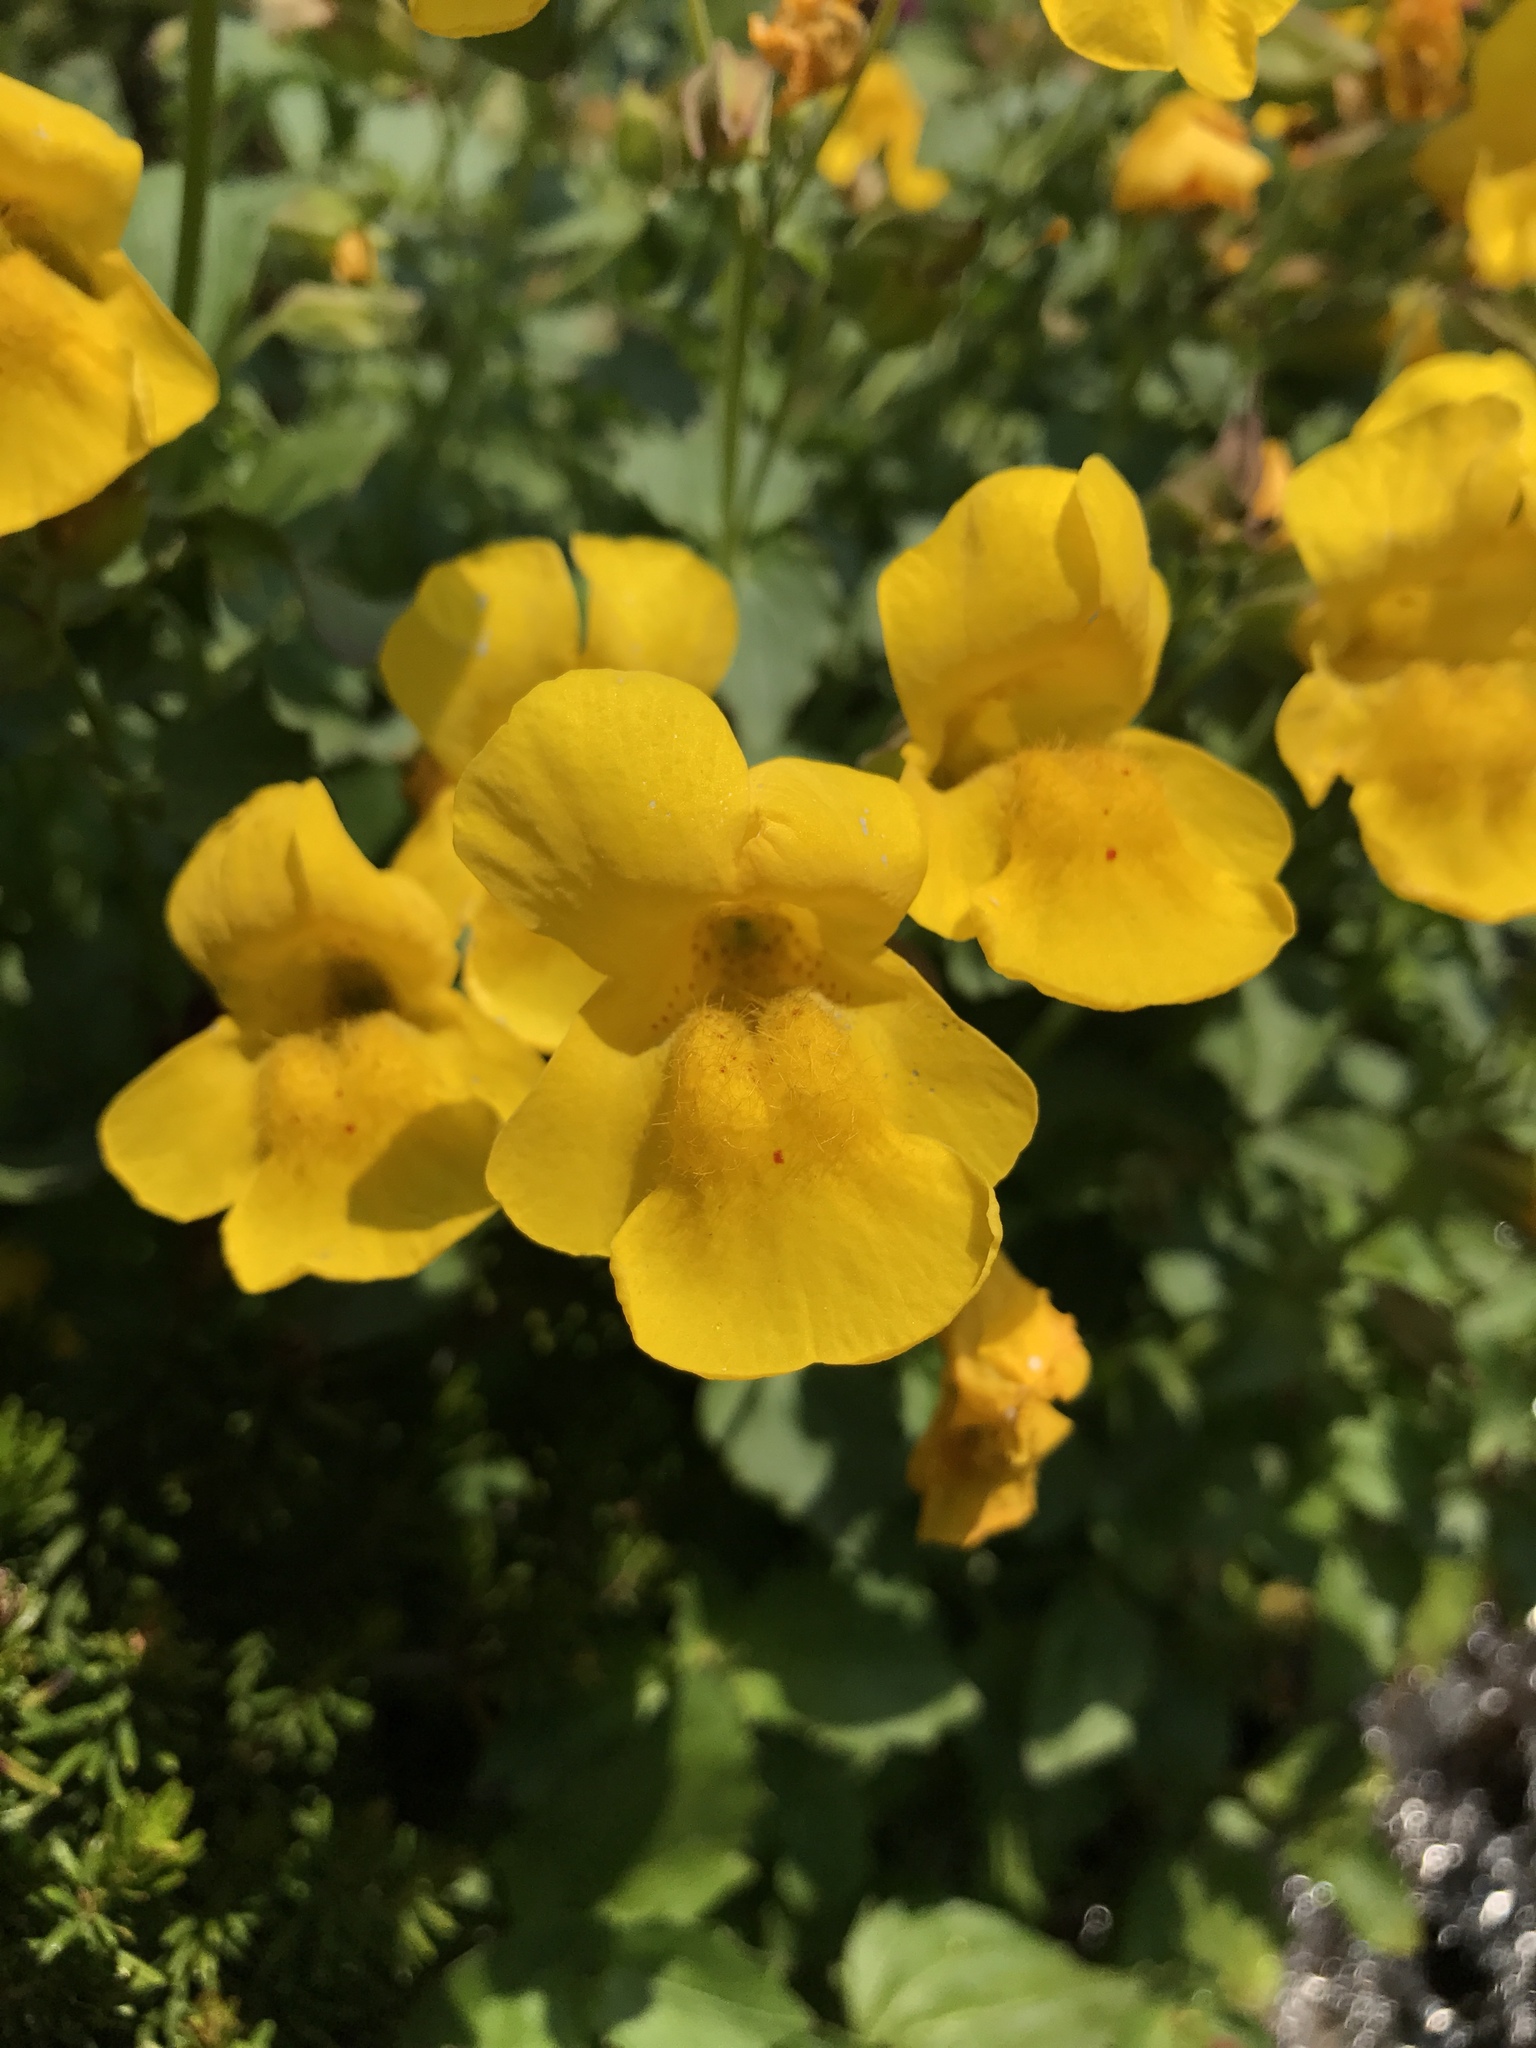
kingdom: Plantae
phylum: Tracheophyta
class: Magnoliopsida
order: Lamiales
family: Phrymaceae
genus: Erythranthe
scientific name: Erythranthe tilingii
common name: Subalpine monkey-flower
